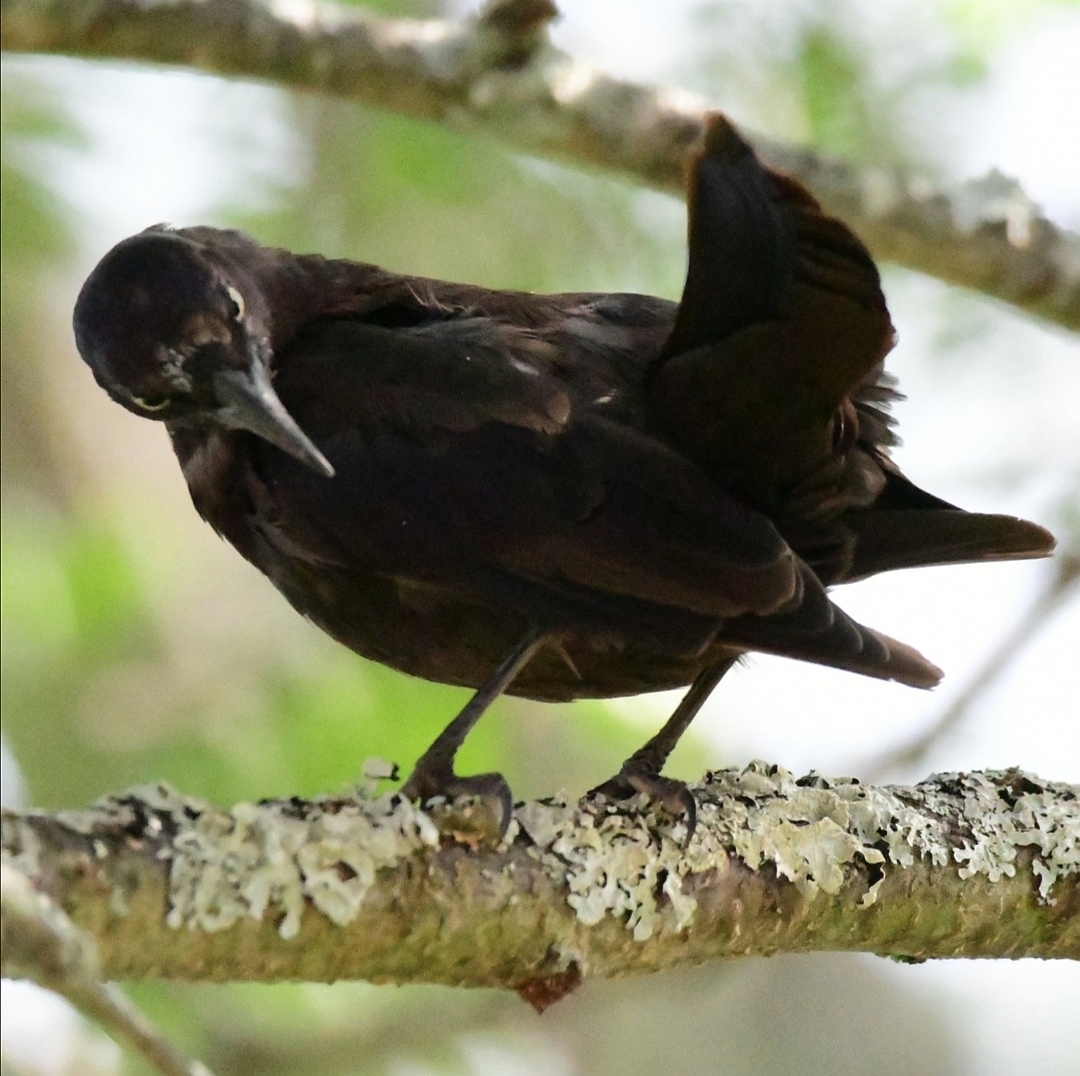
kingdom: Animalia
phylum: Chordata
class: Aves
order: Passeriformes
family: Icteridae
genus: Quiscalus
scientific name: Quiscalus quiscula
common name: Common grackle
